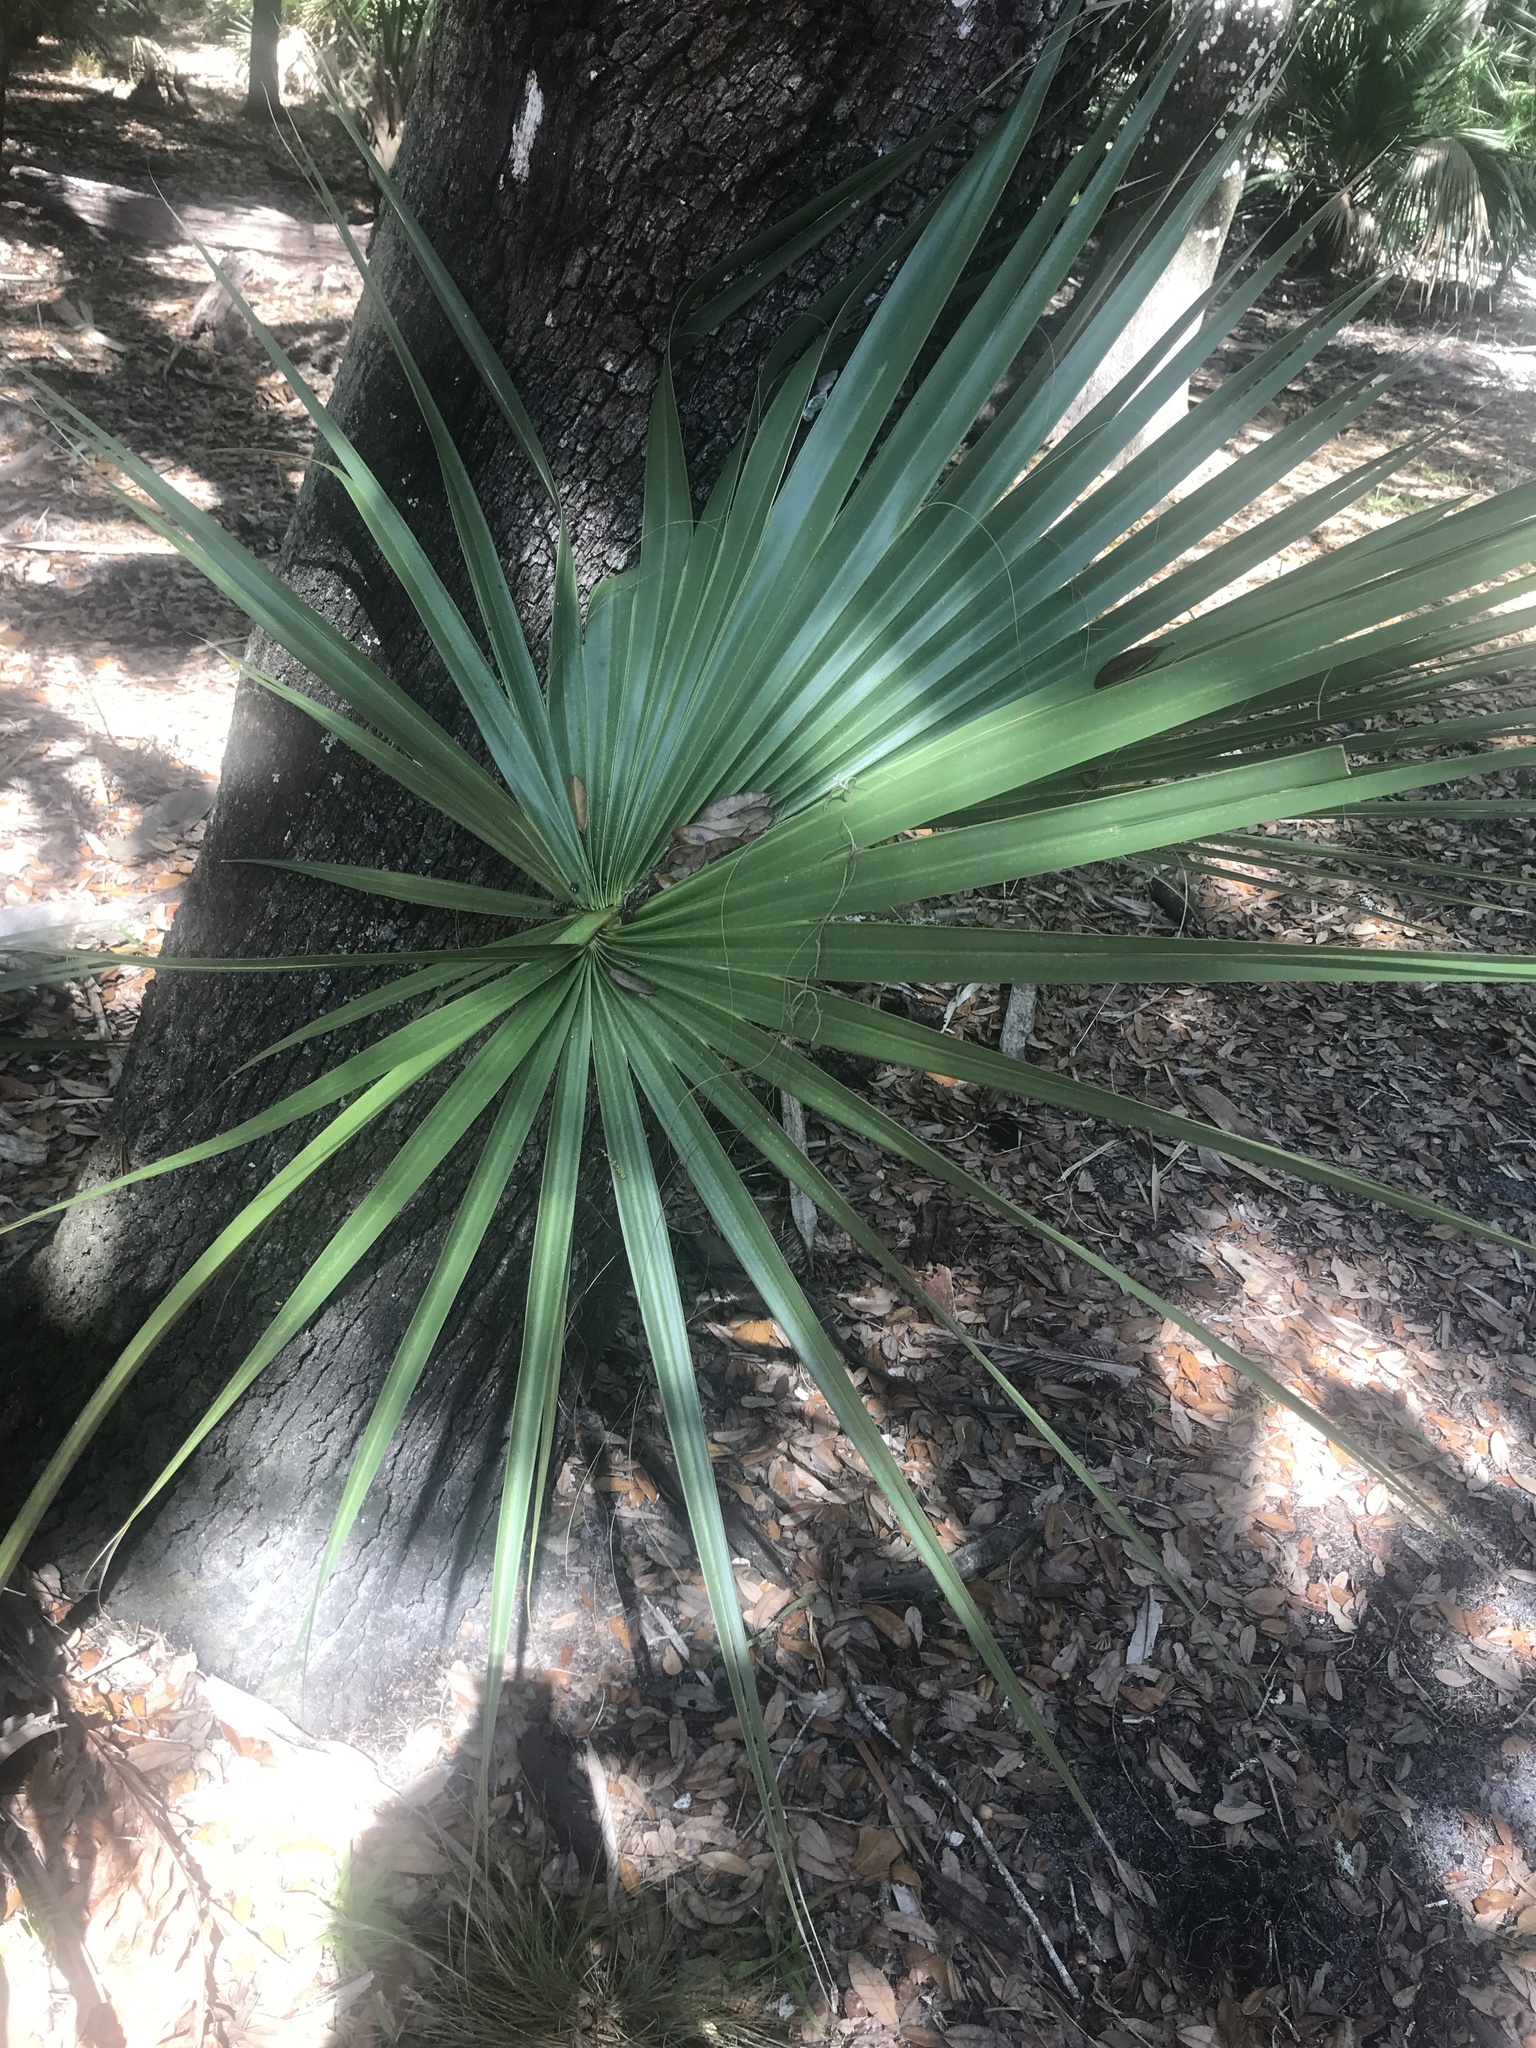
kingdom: Plantae
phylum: Tracheophyta
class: Liliopsida
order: Arecales
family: Arecaceae
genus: Sabal
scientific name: Sabal palmetto
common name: Blue palmetto
